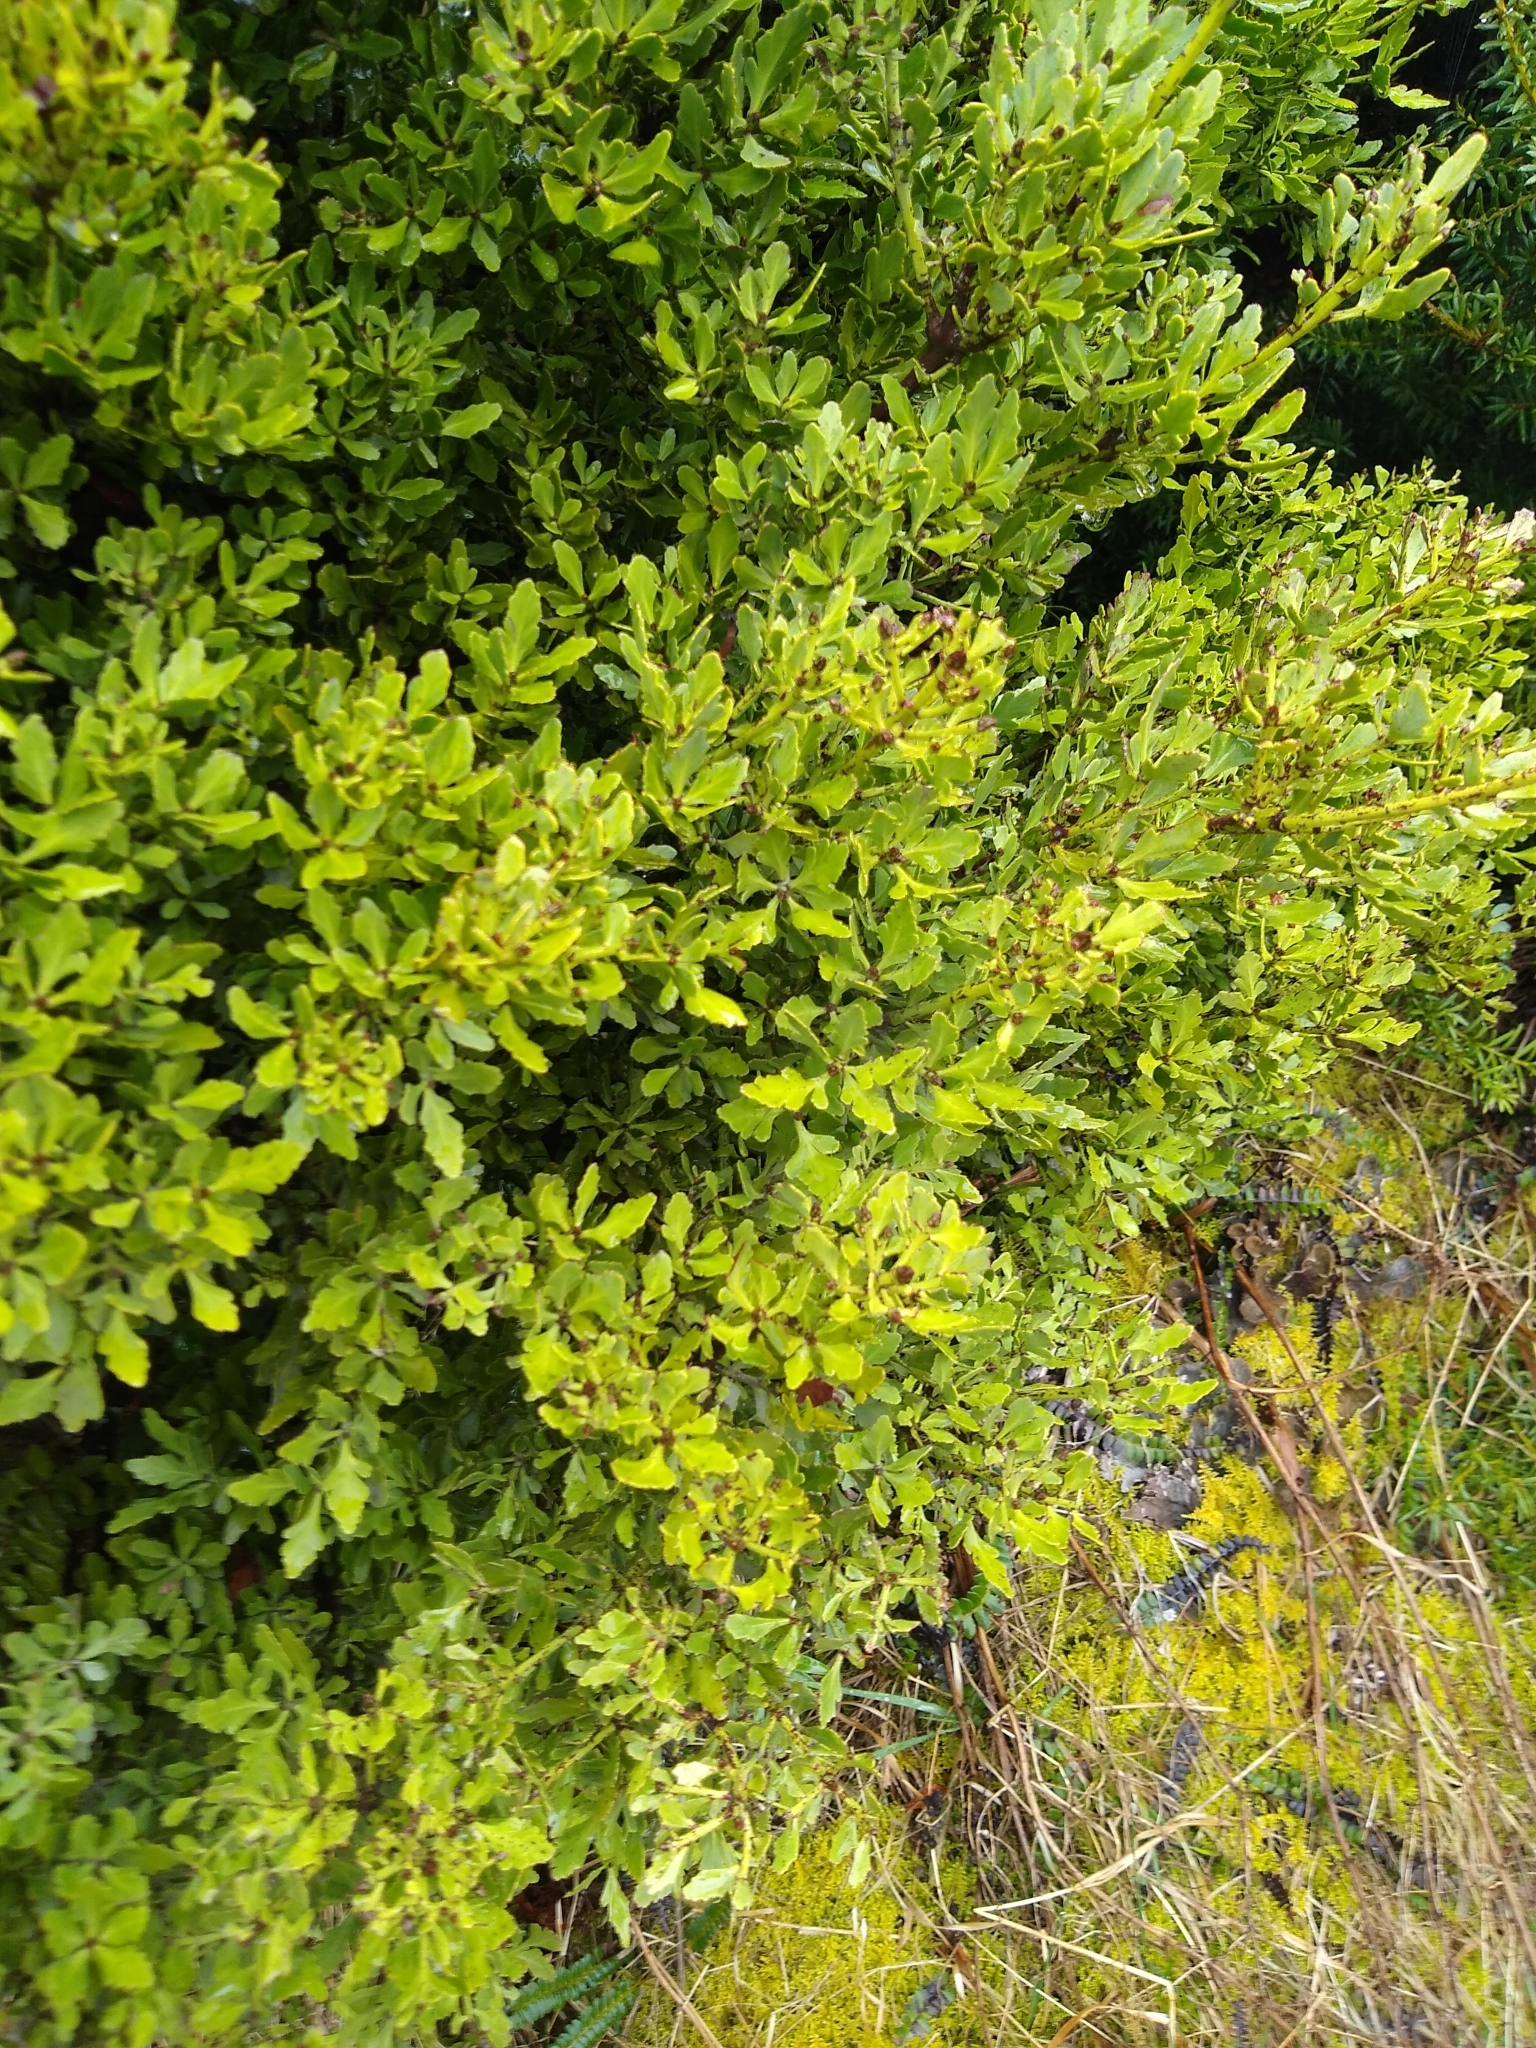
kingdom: Plantae
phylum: Tracheophyta
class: Pinopsida
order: Pinales
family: Phyllocladaceae
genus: Phyllocladus
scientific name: Phyllocladus trichomanoides
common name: Celery pine
